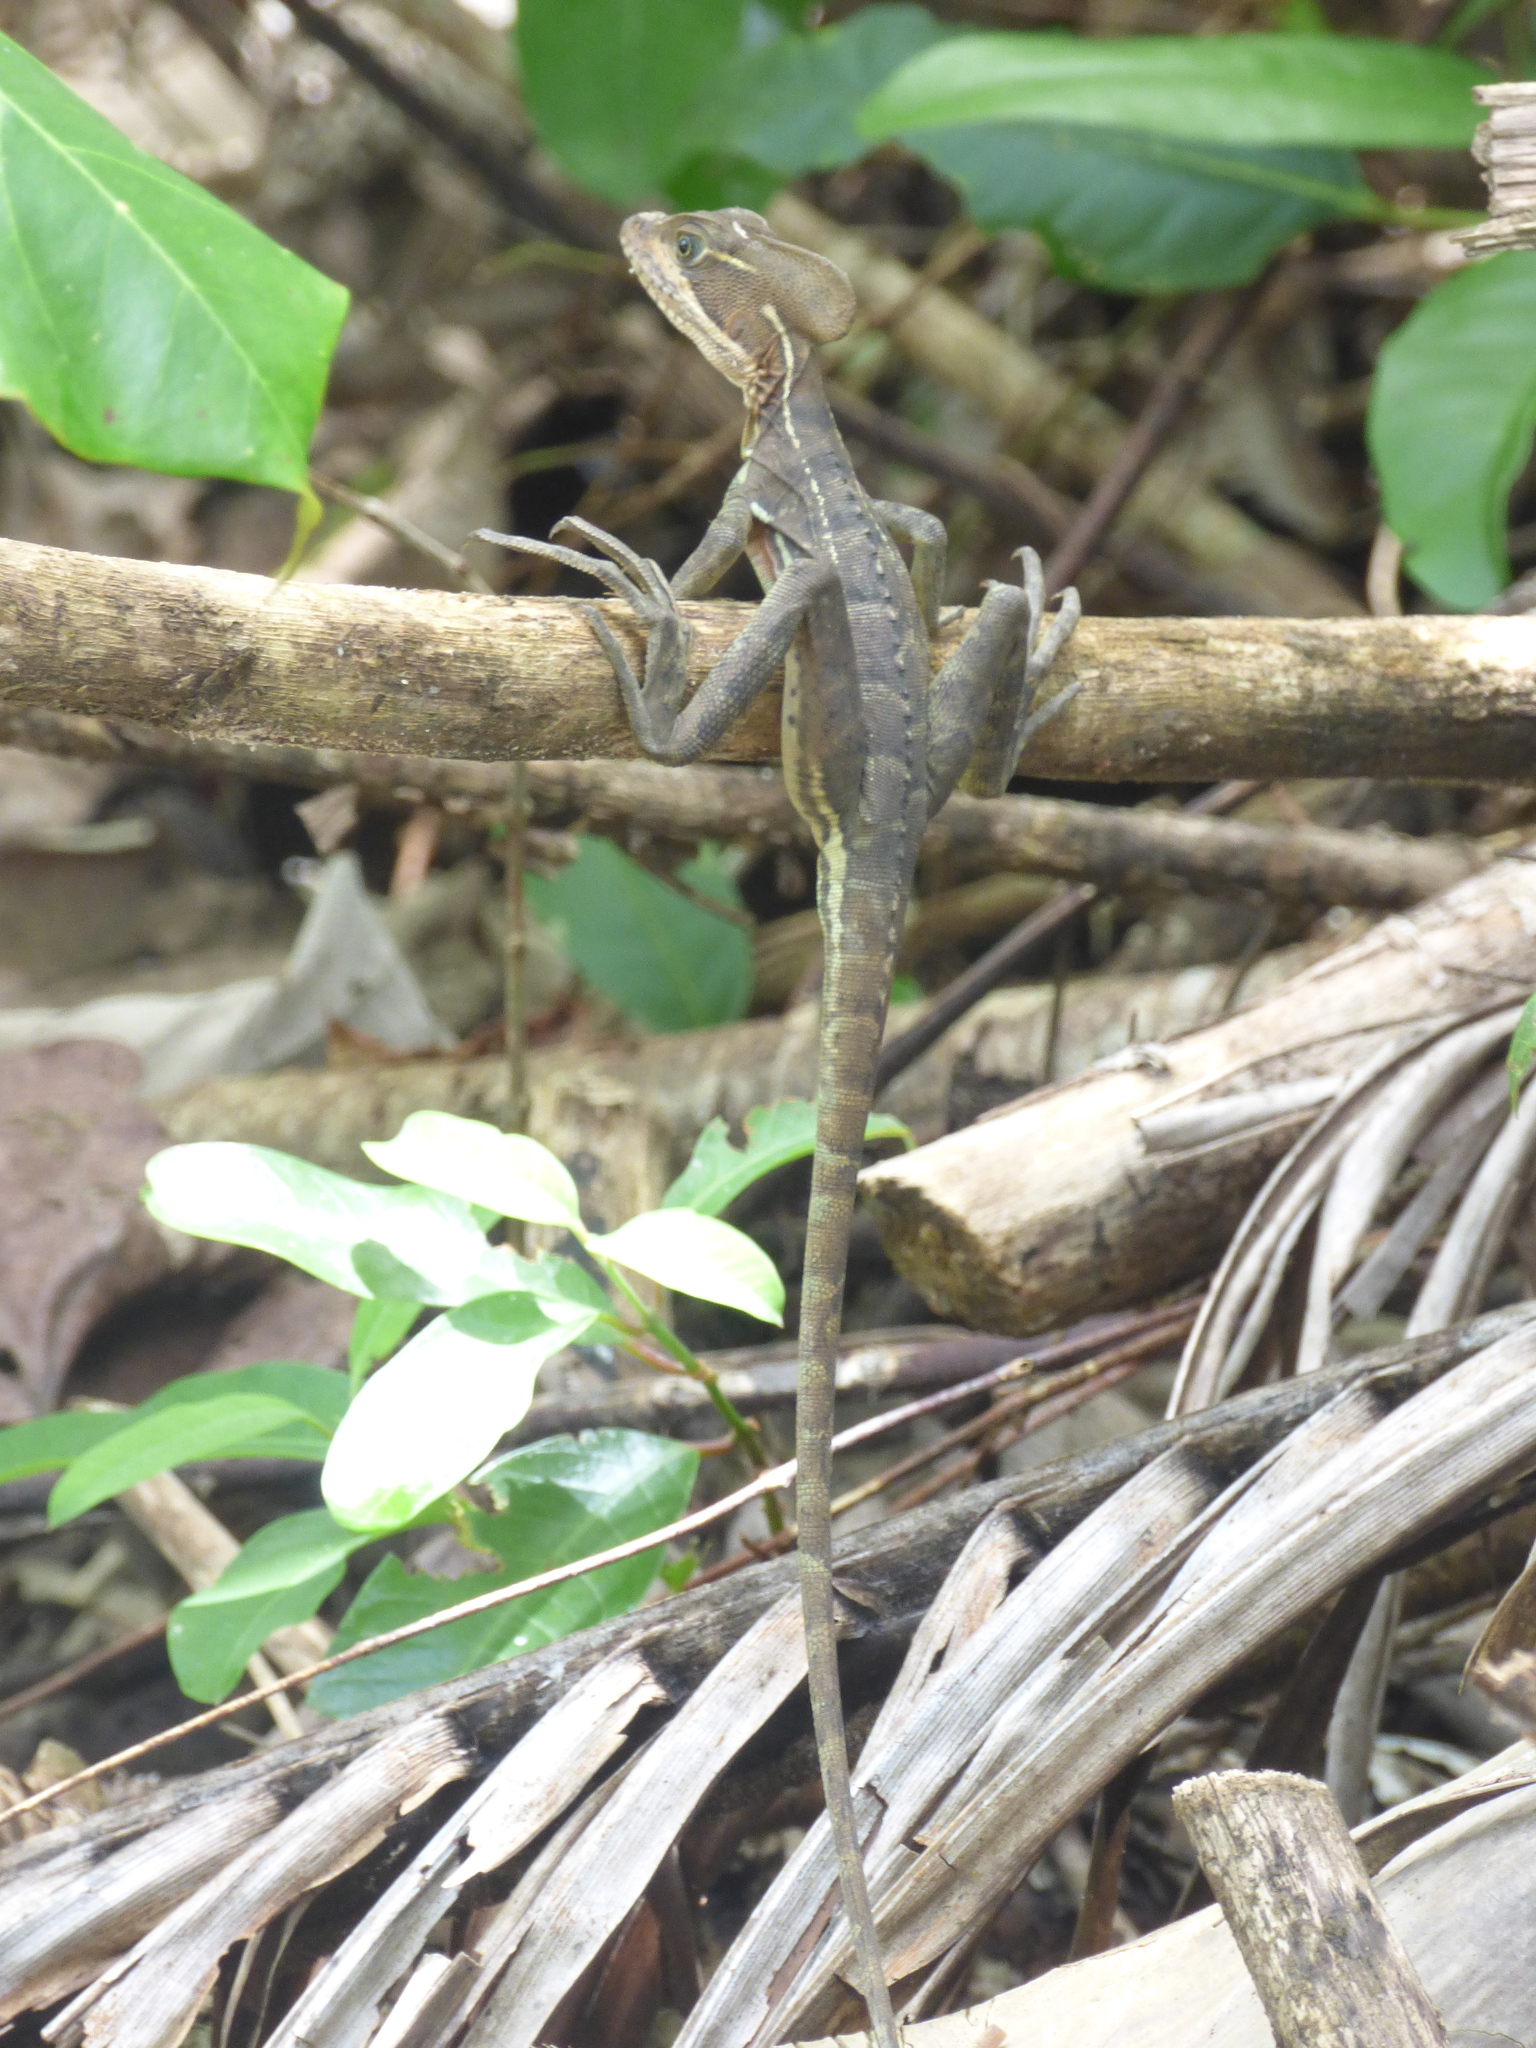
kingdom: Animalia
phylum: Chordata
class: Squamata
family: Corytophanidae
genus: Basiliscus
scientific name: Basiliscus galeritus
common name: Western basilisk
